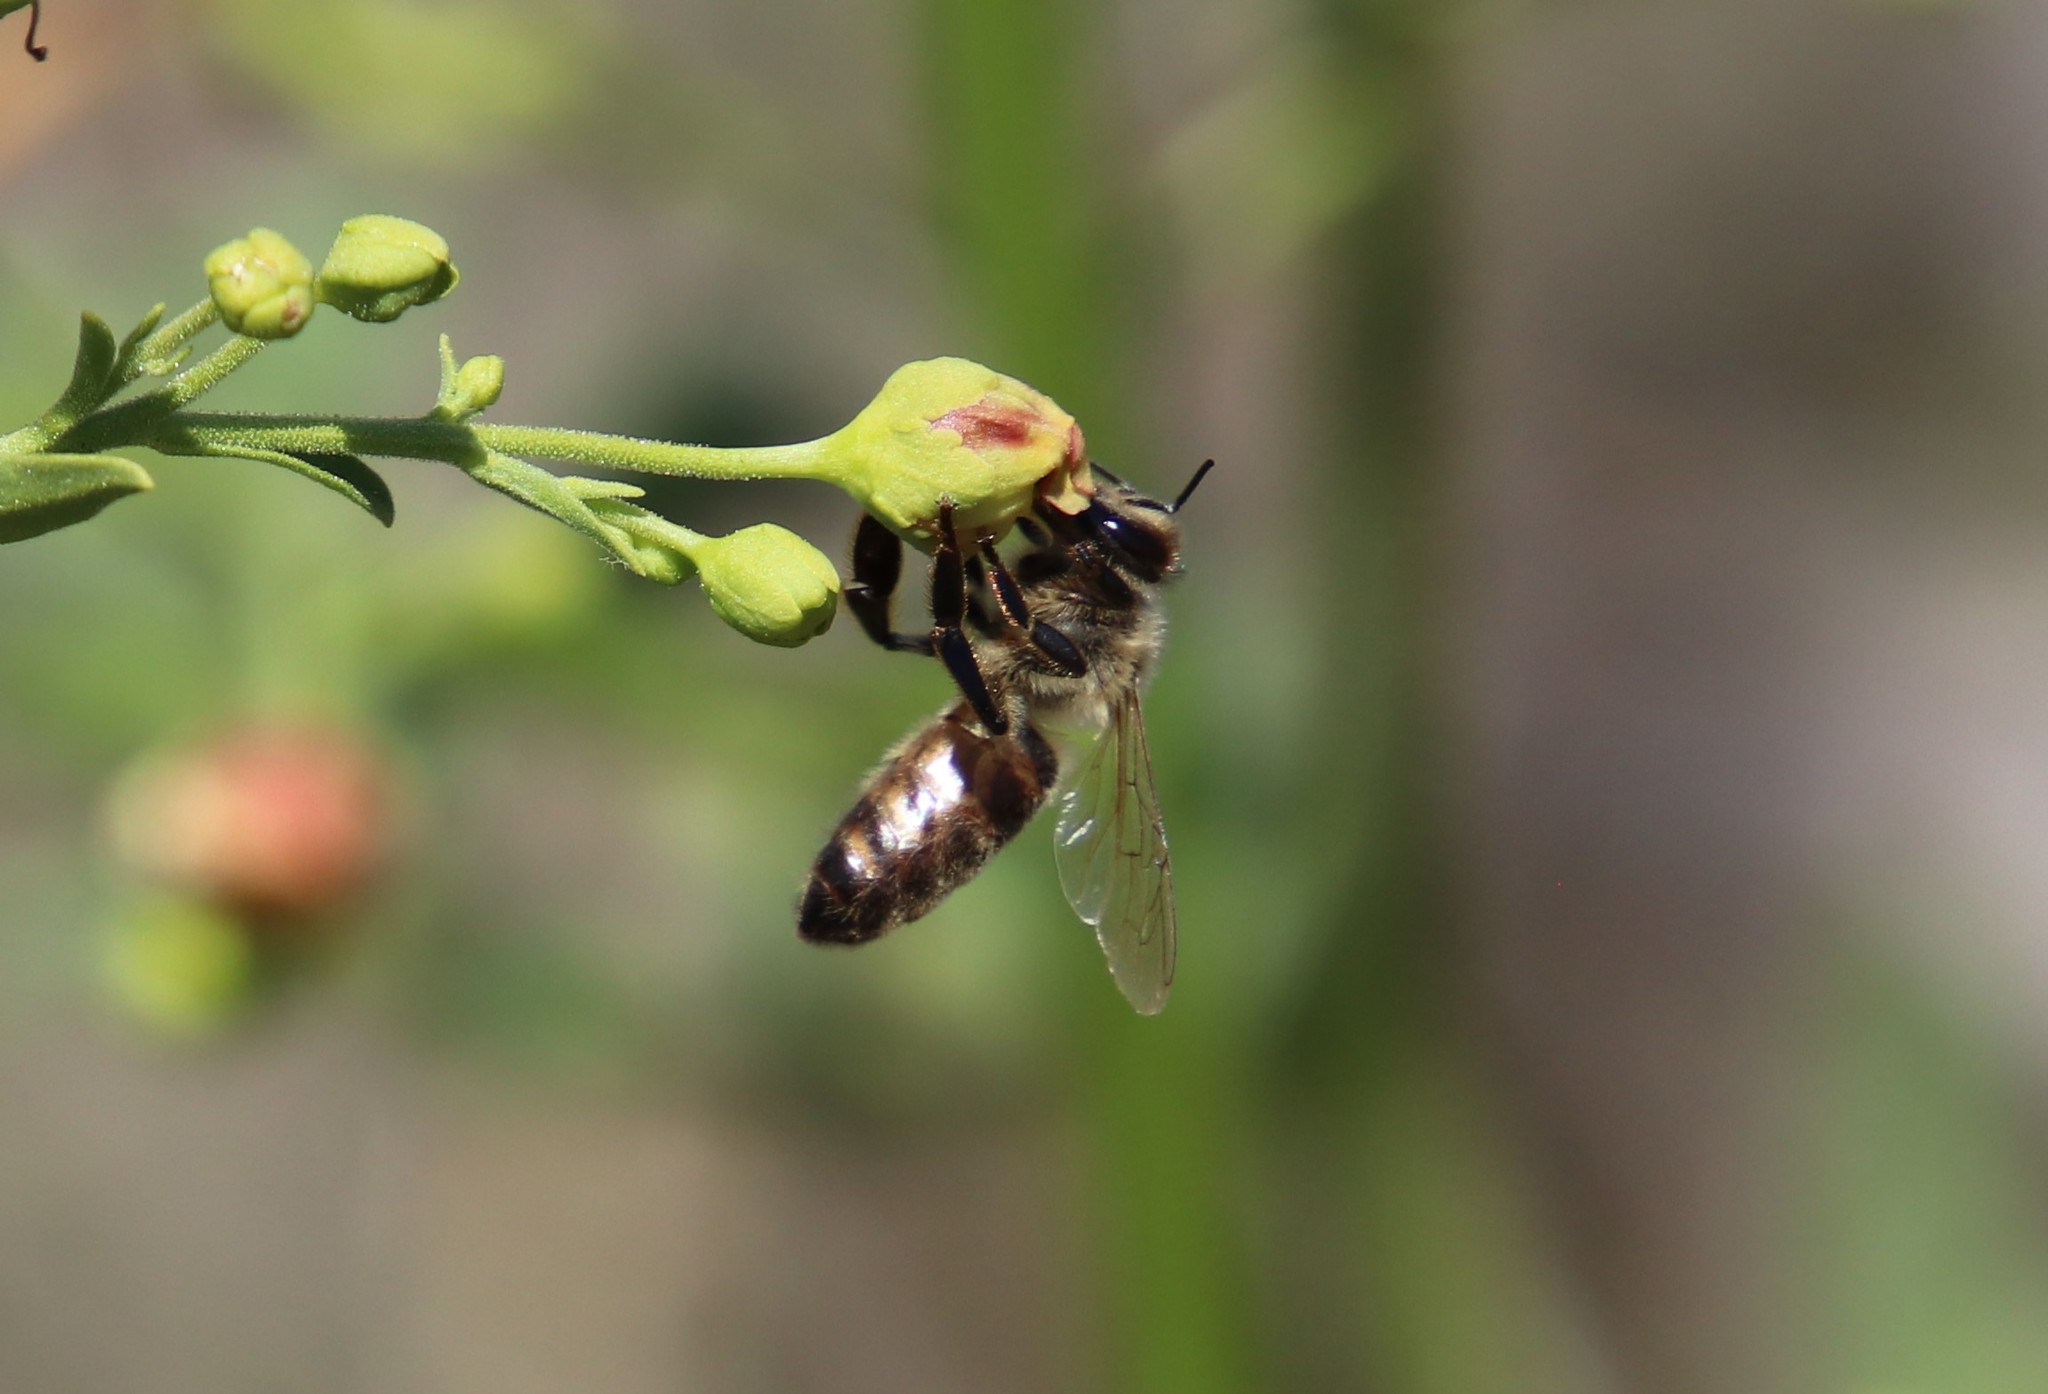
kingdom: Animalia
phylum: Arthropoda
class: Insecta
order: Hymenoptera
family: Apidae
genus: Apis
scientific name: Apis mellifera
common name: Honey bee
